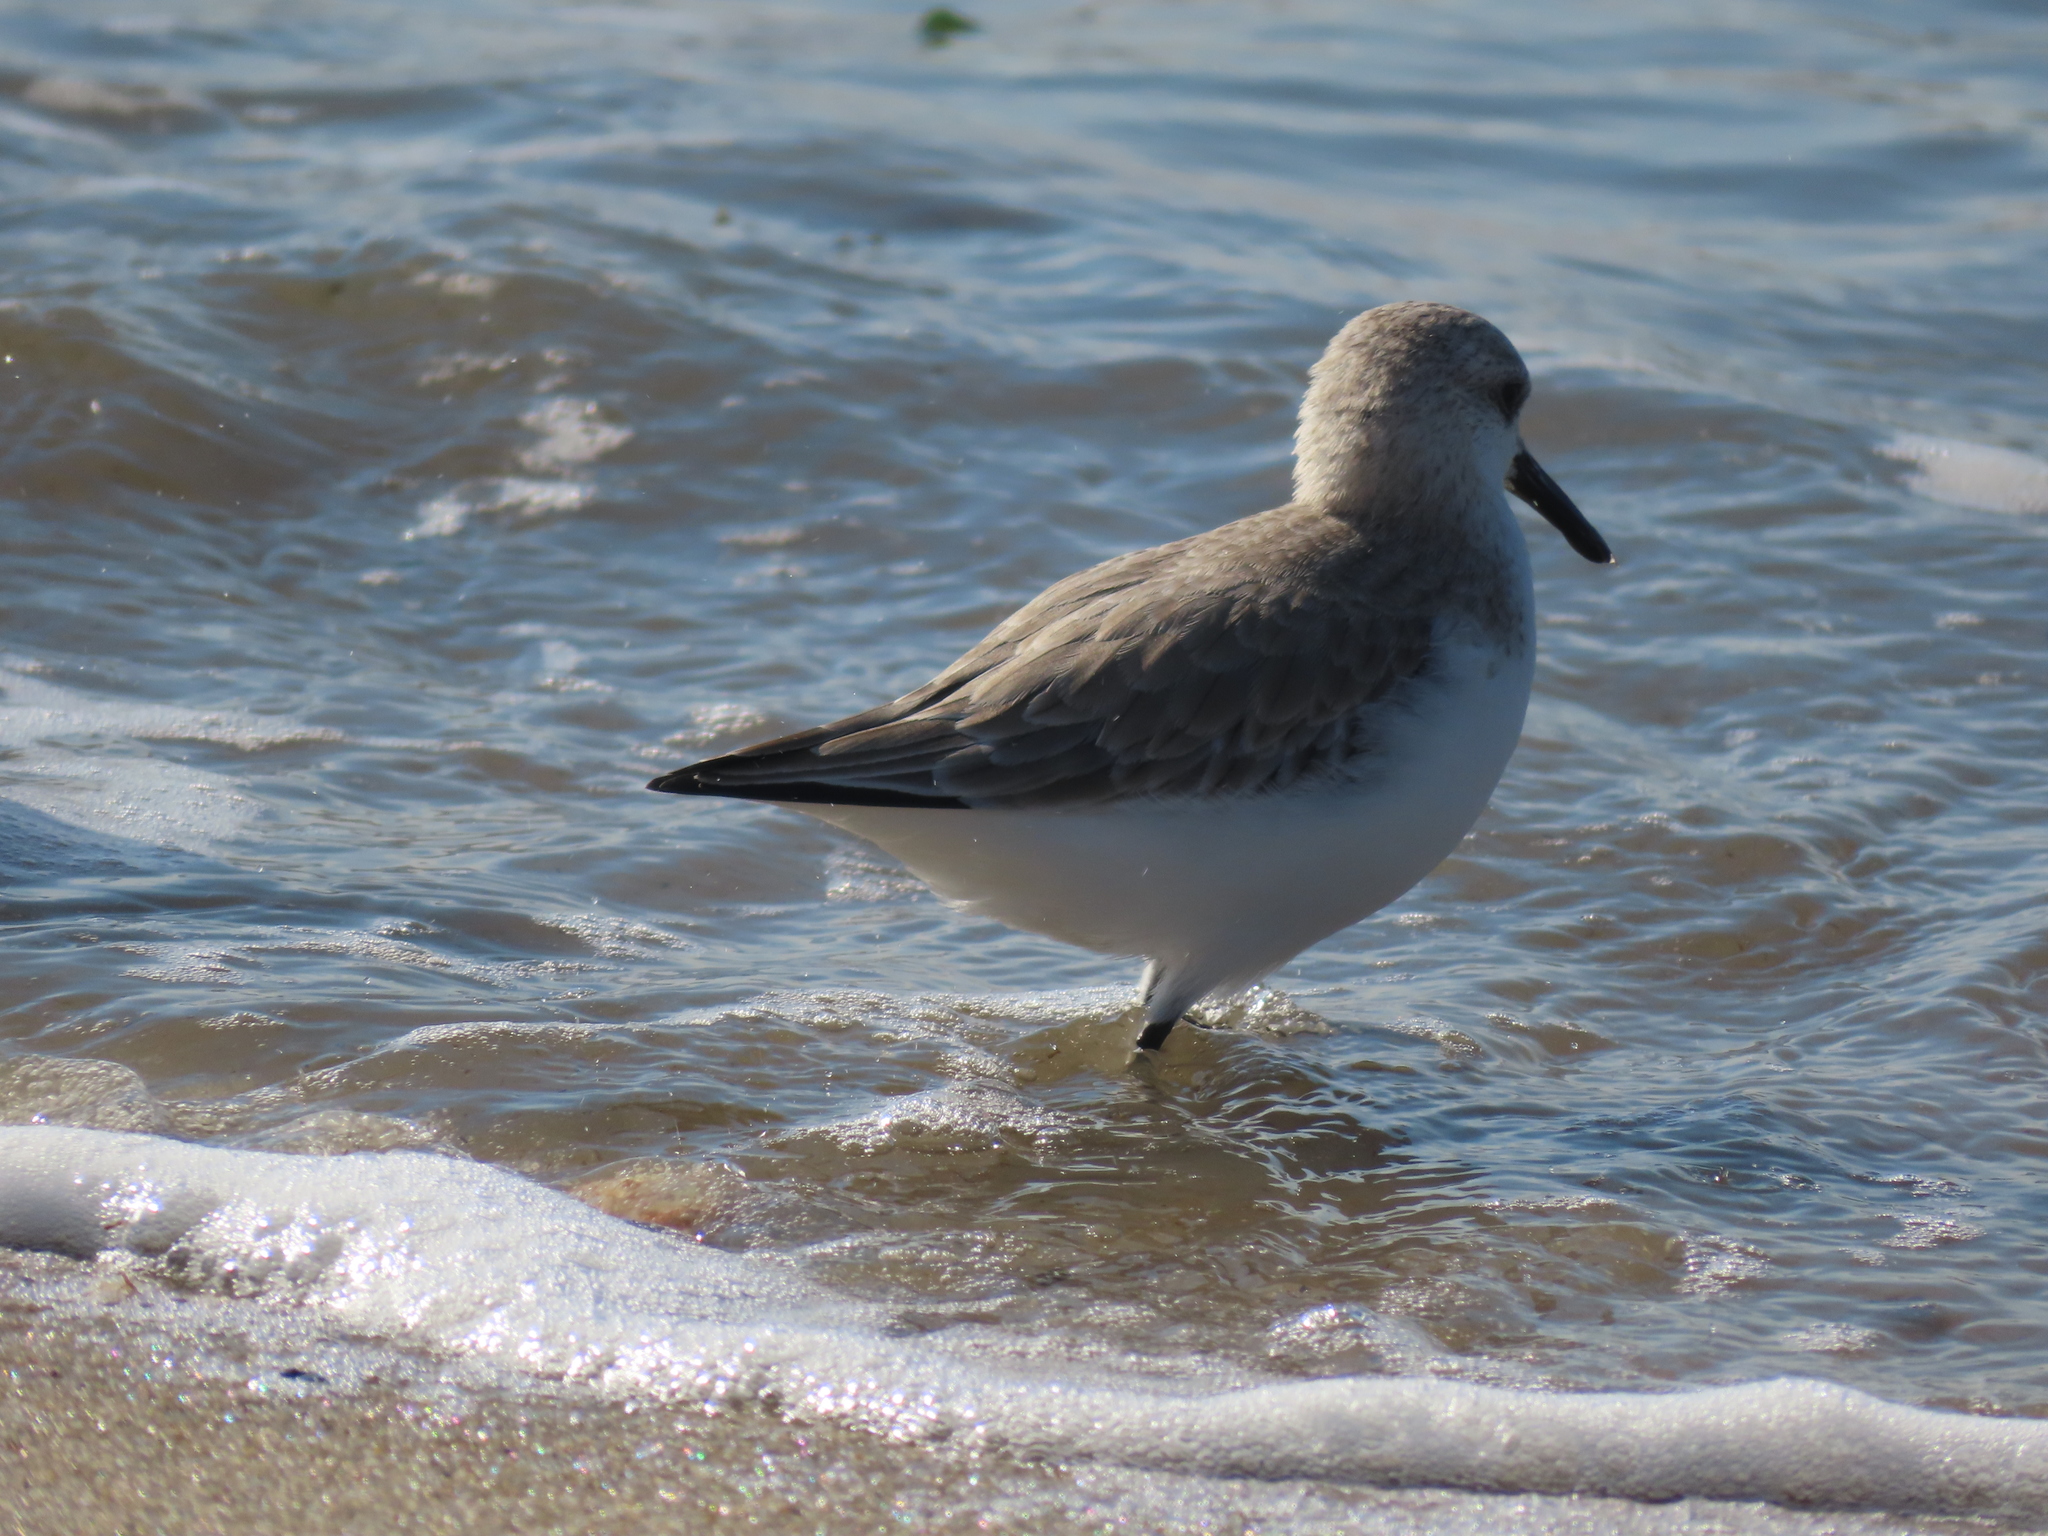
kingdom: Animalia
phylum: Chordata
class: Aves
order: Charadriiformes
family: Scolopacidae
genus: Calidris
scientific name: Calidris alba
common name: Sanderling
